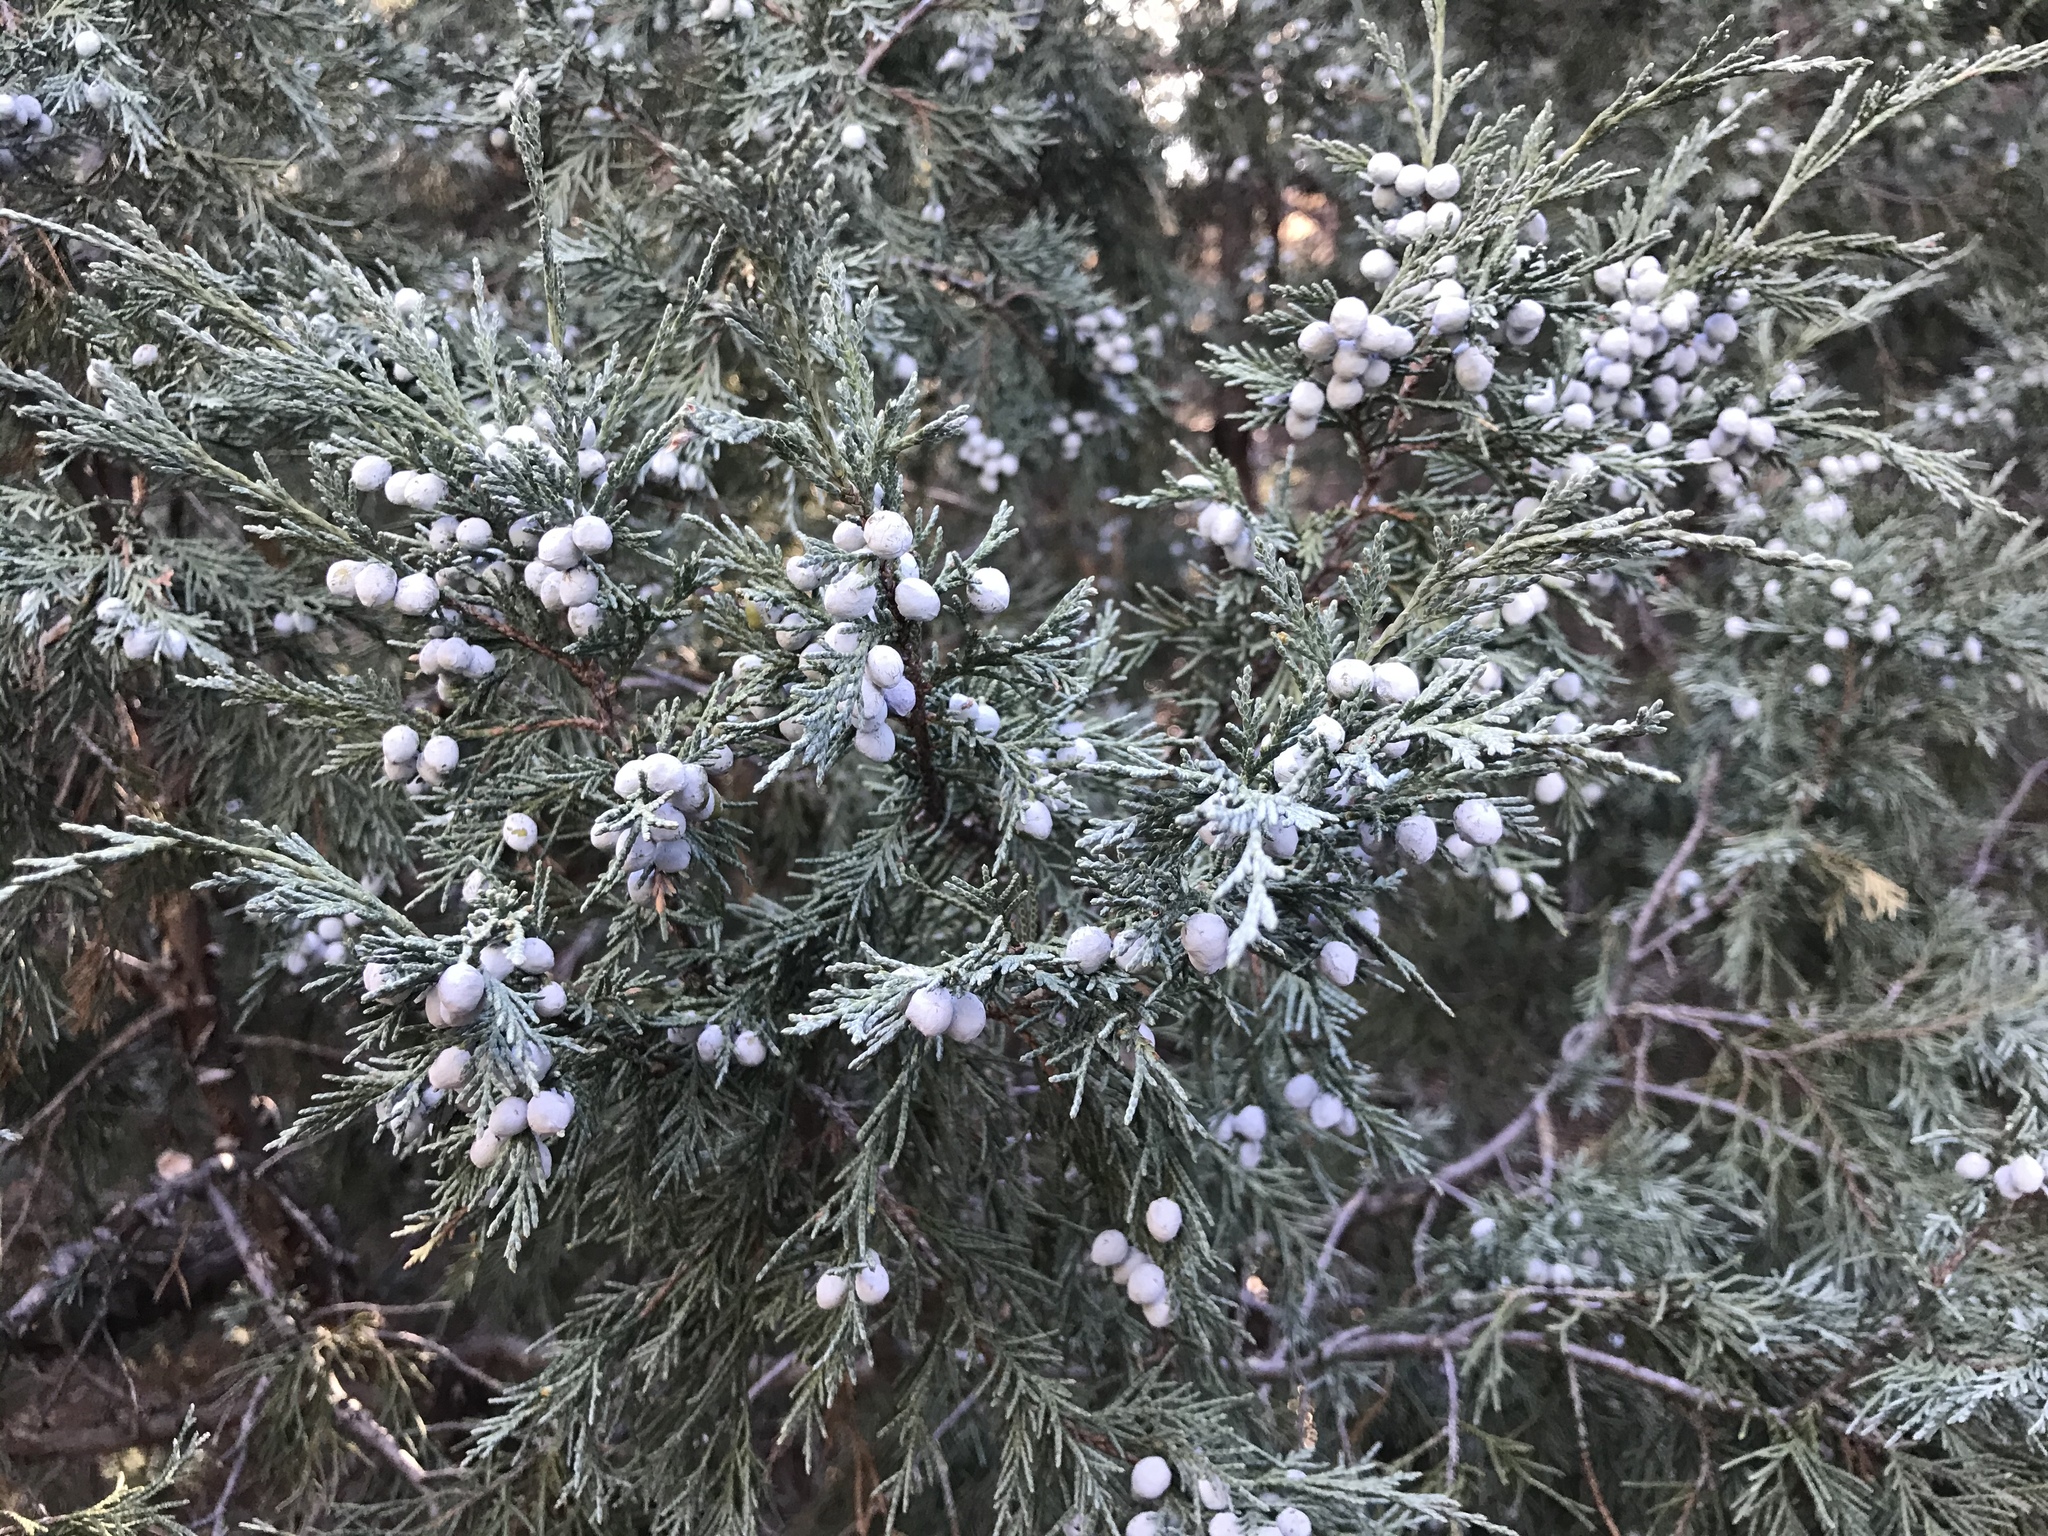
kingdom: Plantae
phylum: Tracheophyta
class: Pinopsida
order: Pinales
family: Cupressaceae
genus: Juniperus
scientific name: Juniperus scopulorum
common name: Rocky mountain juniper
